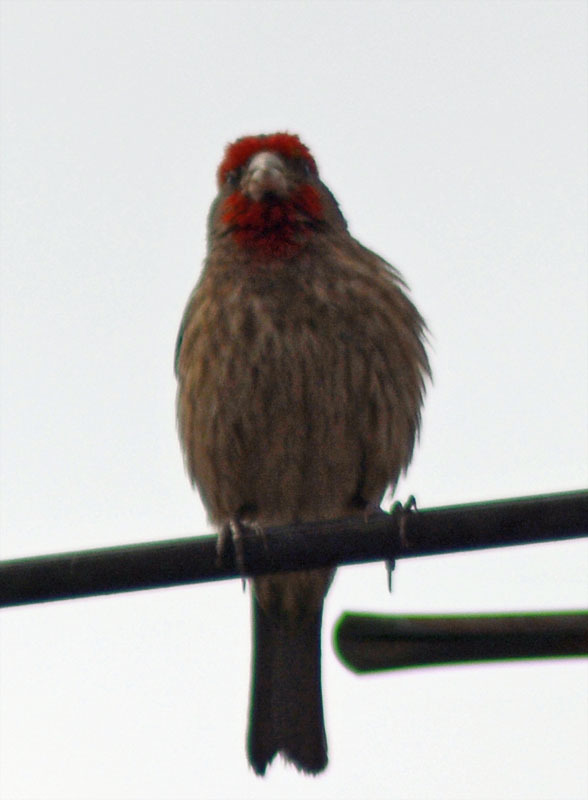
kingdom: Animalia
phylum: Chordata
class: Aves
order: Passeriformes
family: Fringillidae
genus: Haemorhous
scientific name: Haemorhous mexicanus
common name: House finch
